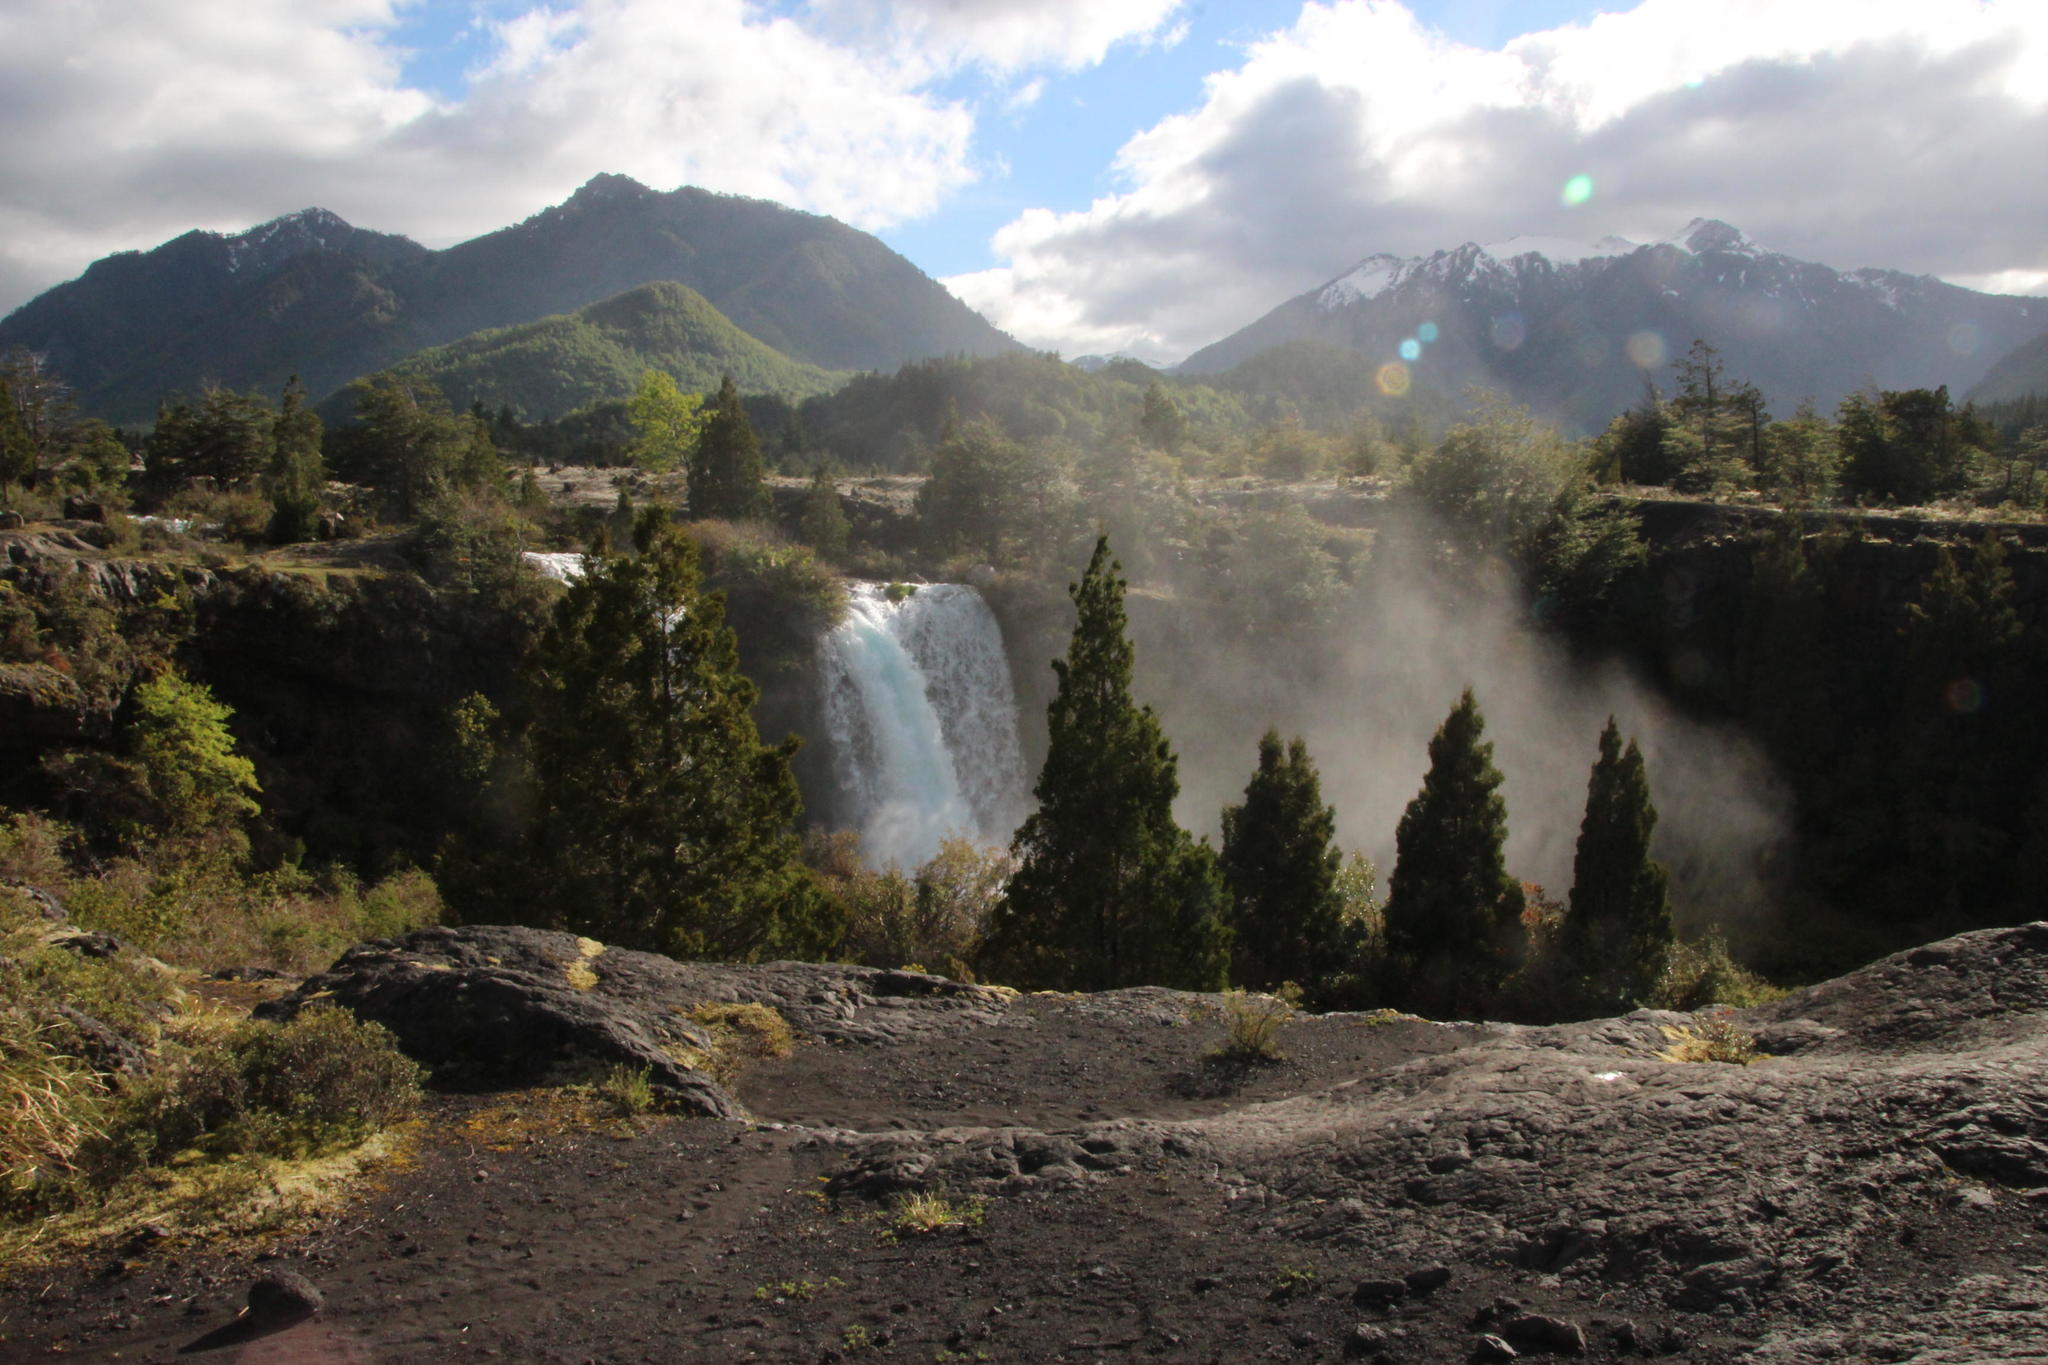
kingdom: Plantae
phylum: Tracheophyta
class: Pinopsida
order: Pinales
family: Cupressaceae
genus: Austrocedrus
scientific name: Austrocedrus chilensis
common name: Chilean incense-cedar
